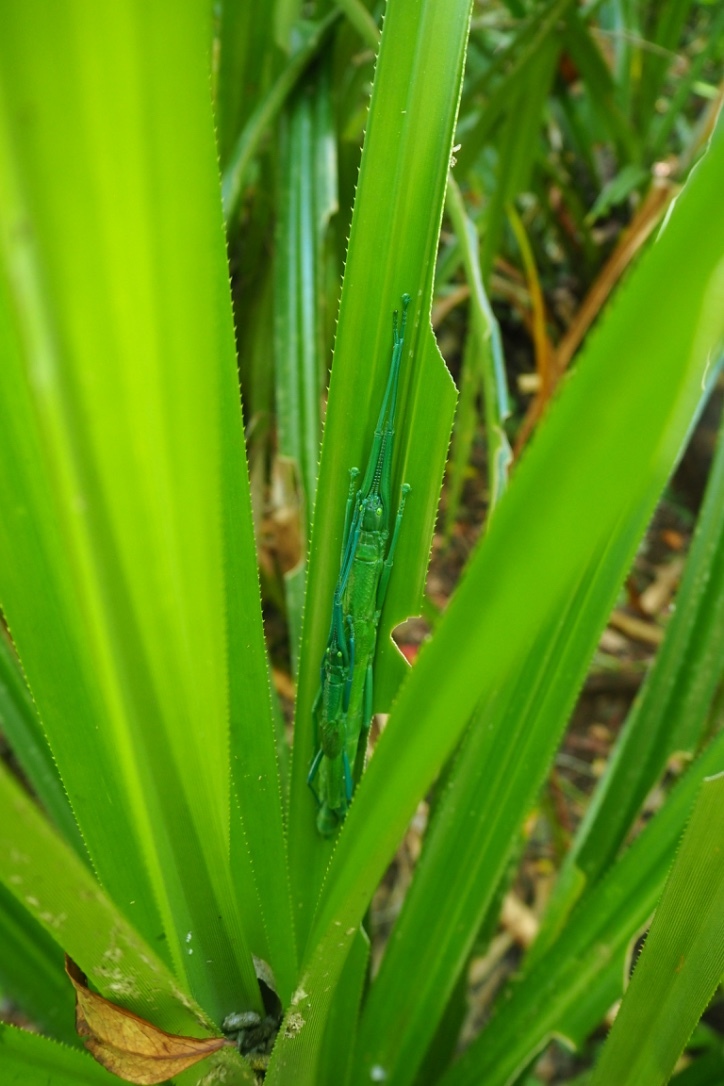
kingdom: Animalia
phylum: Arthropoda
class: Insecta
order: Phasmida
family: Phasmatidae
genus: Megacrania
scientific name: Megacrania batesii
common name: Peppermint stick-insect
